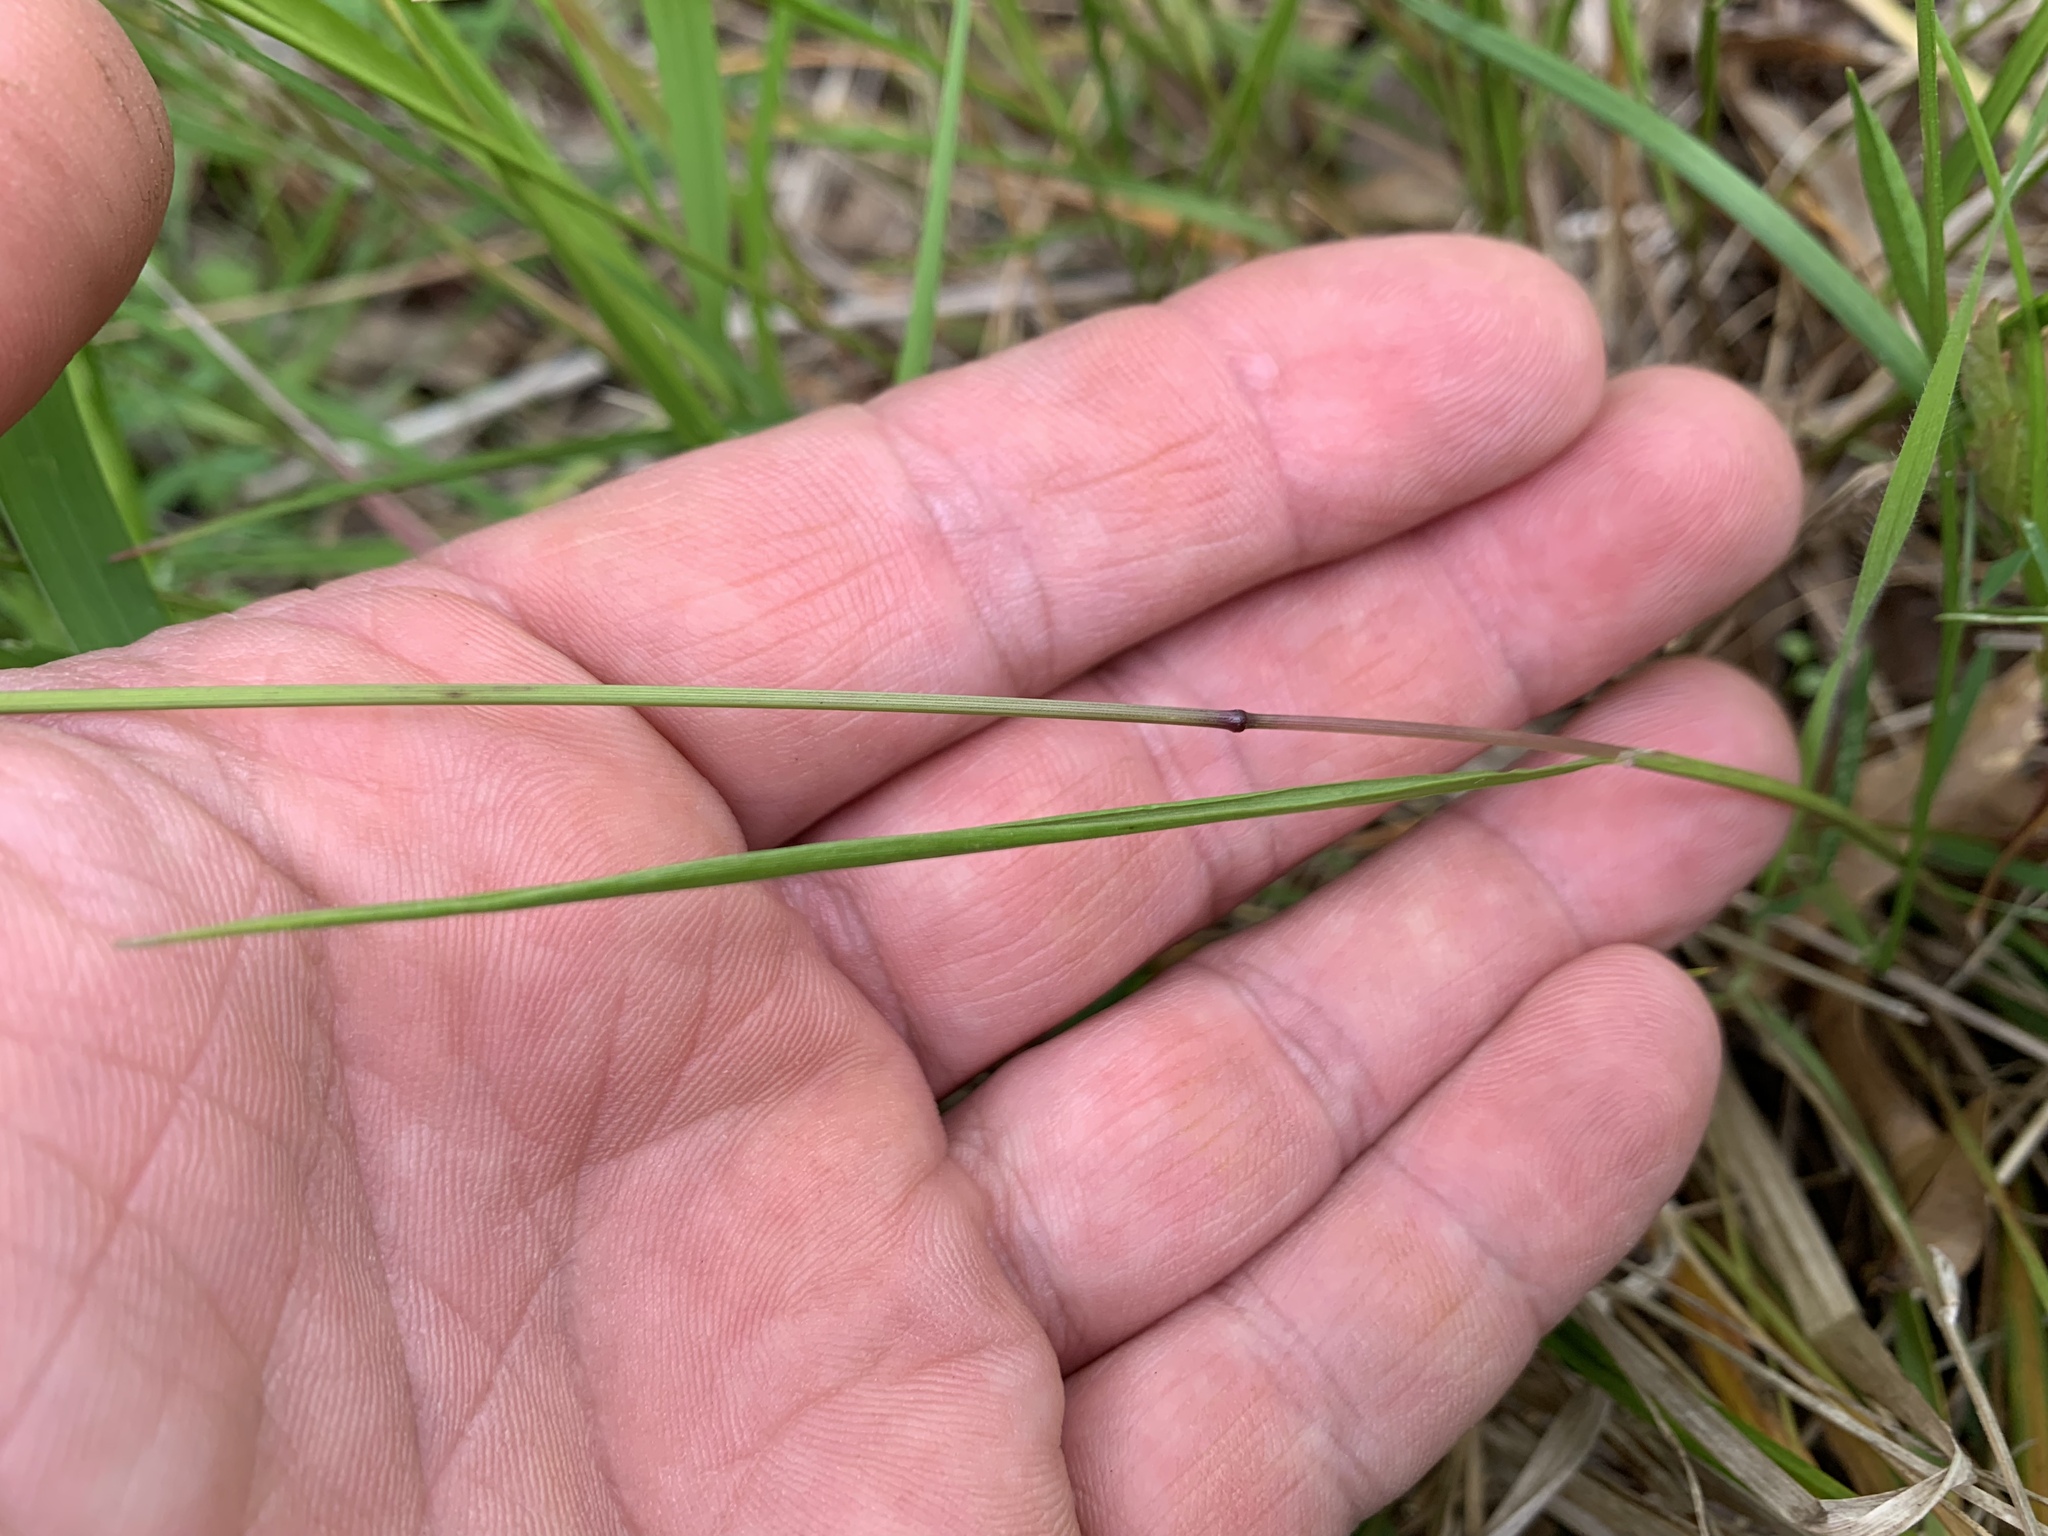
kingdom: Plantae
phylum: Tracheophyta
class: Liliopsida
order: Poales
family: Poaceae
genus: Melica
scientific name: Melica mutica
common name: Two-flower melic
